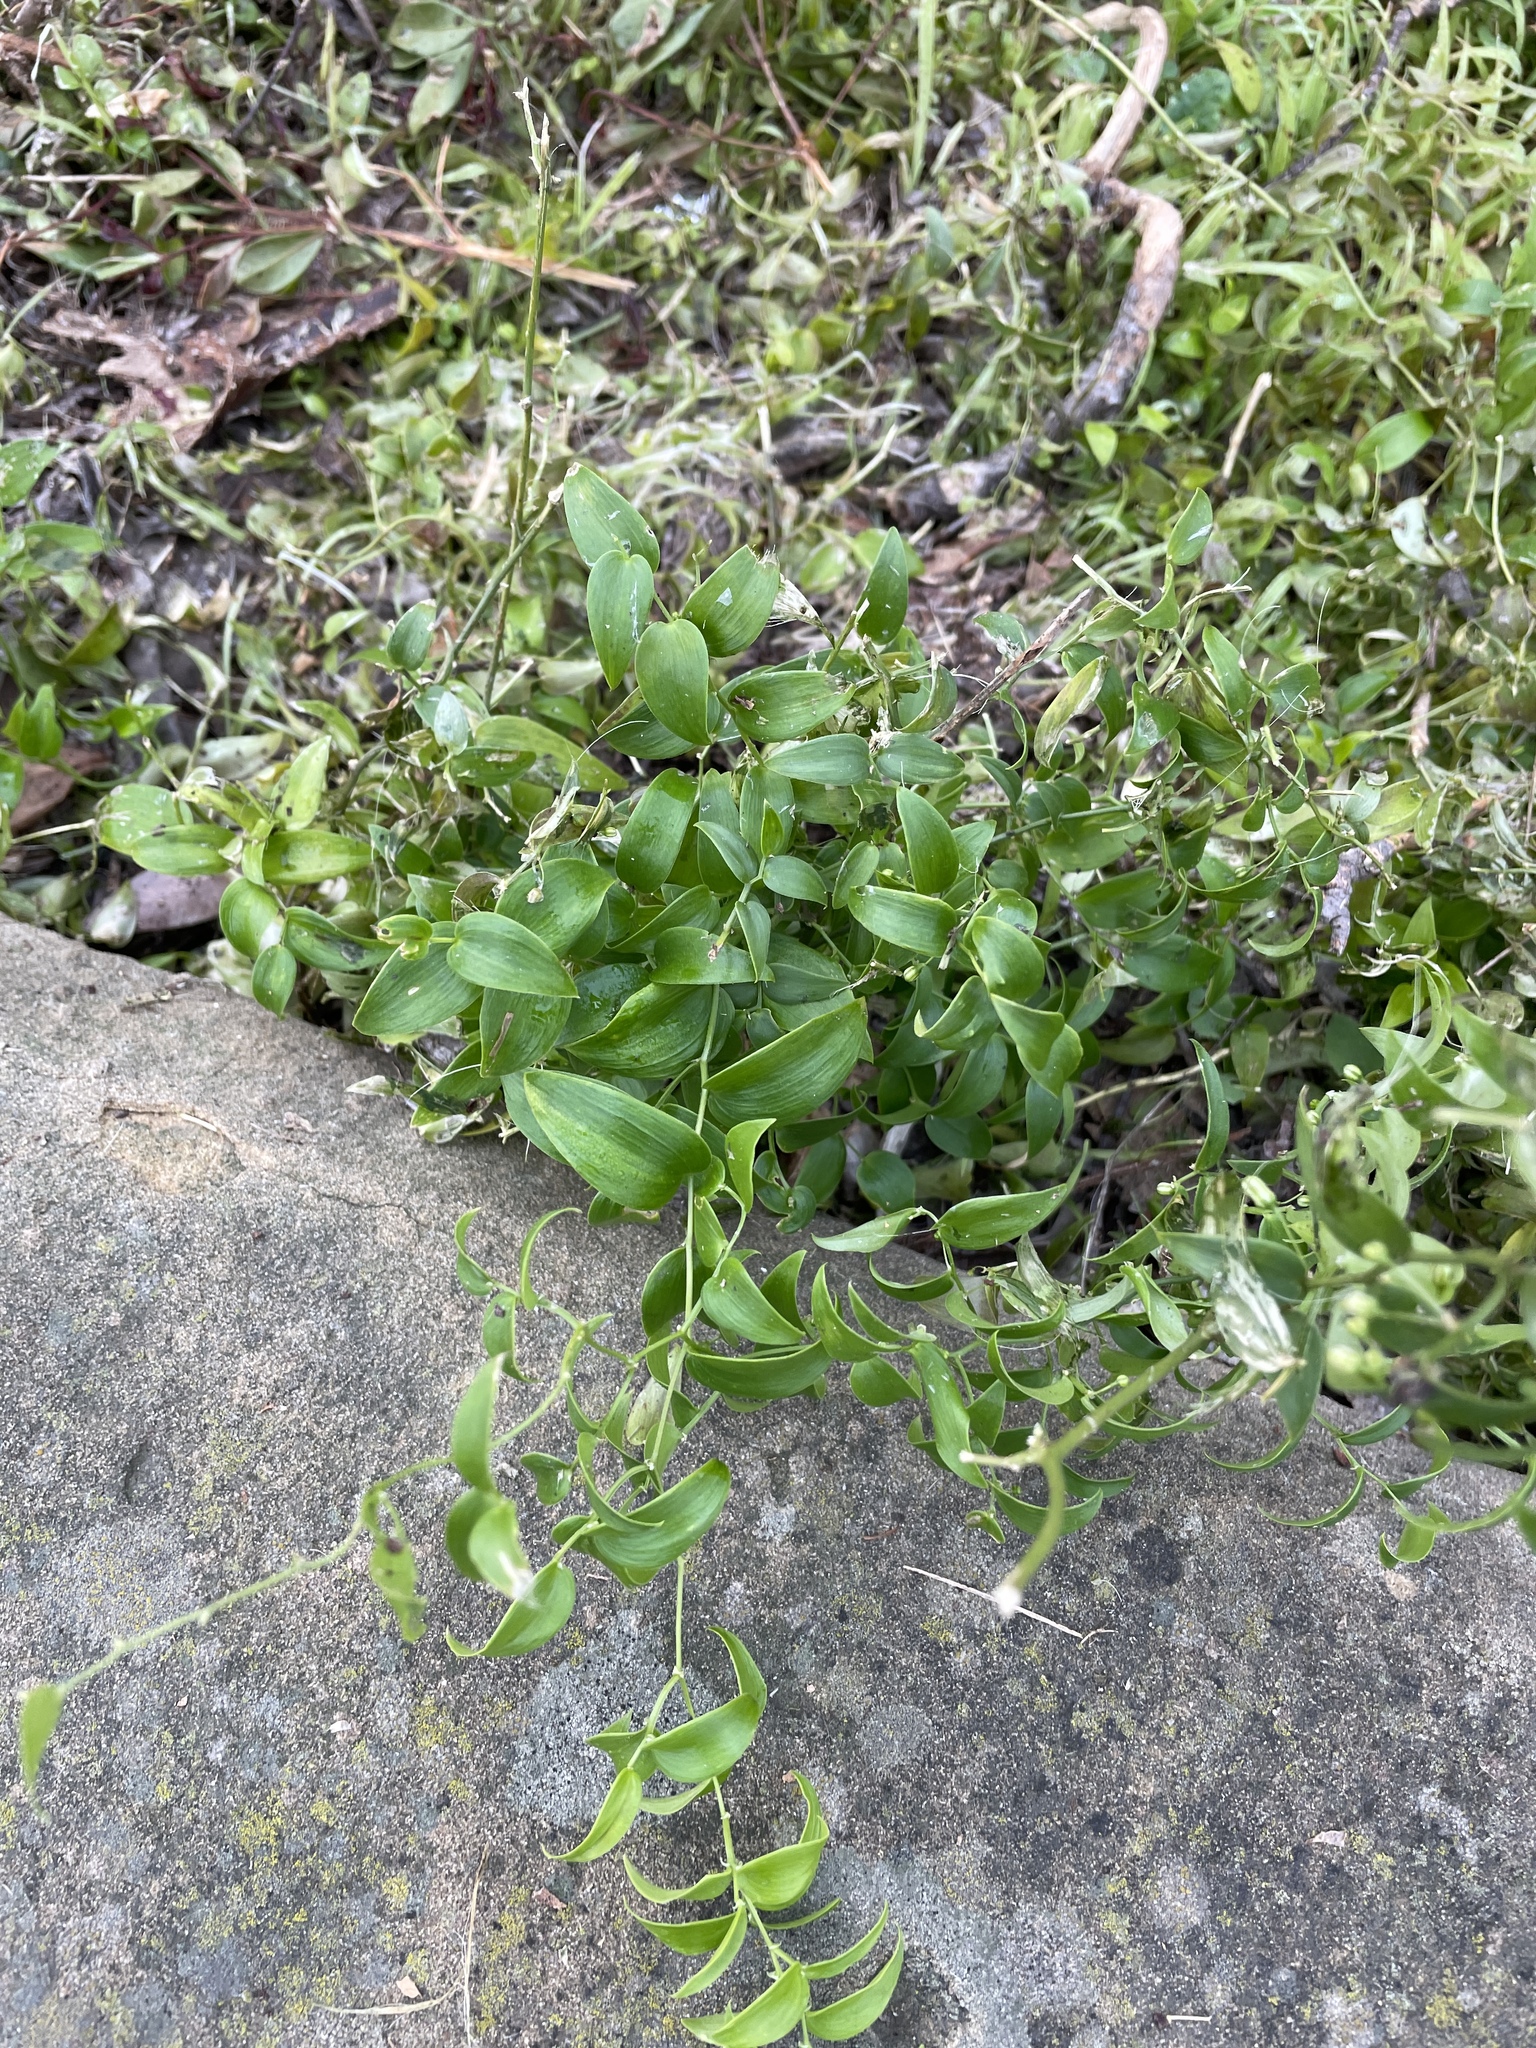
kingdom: Plantae
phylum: Tracheophyta
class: Liliopsida
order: Asparagales
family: Asparagaceae
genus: Asparagus
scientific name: Asparagus asparagoides
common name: African asparagus fern
